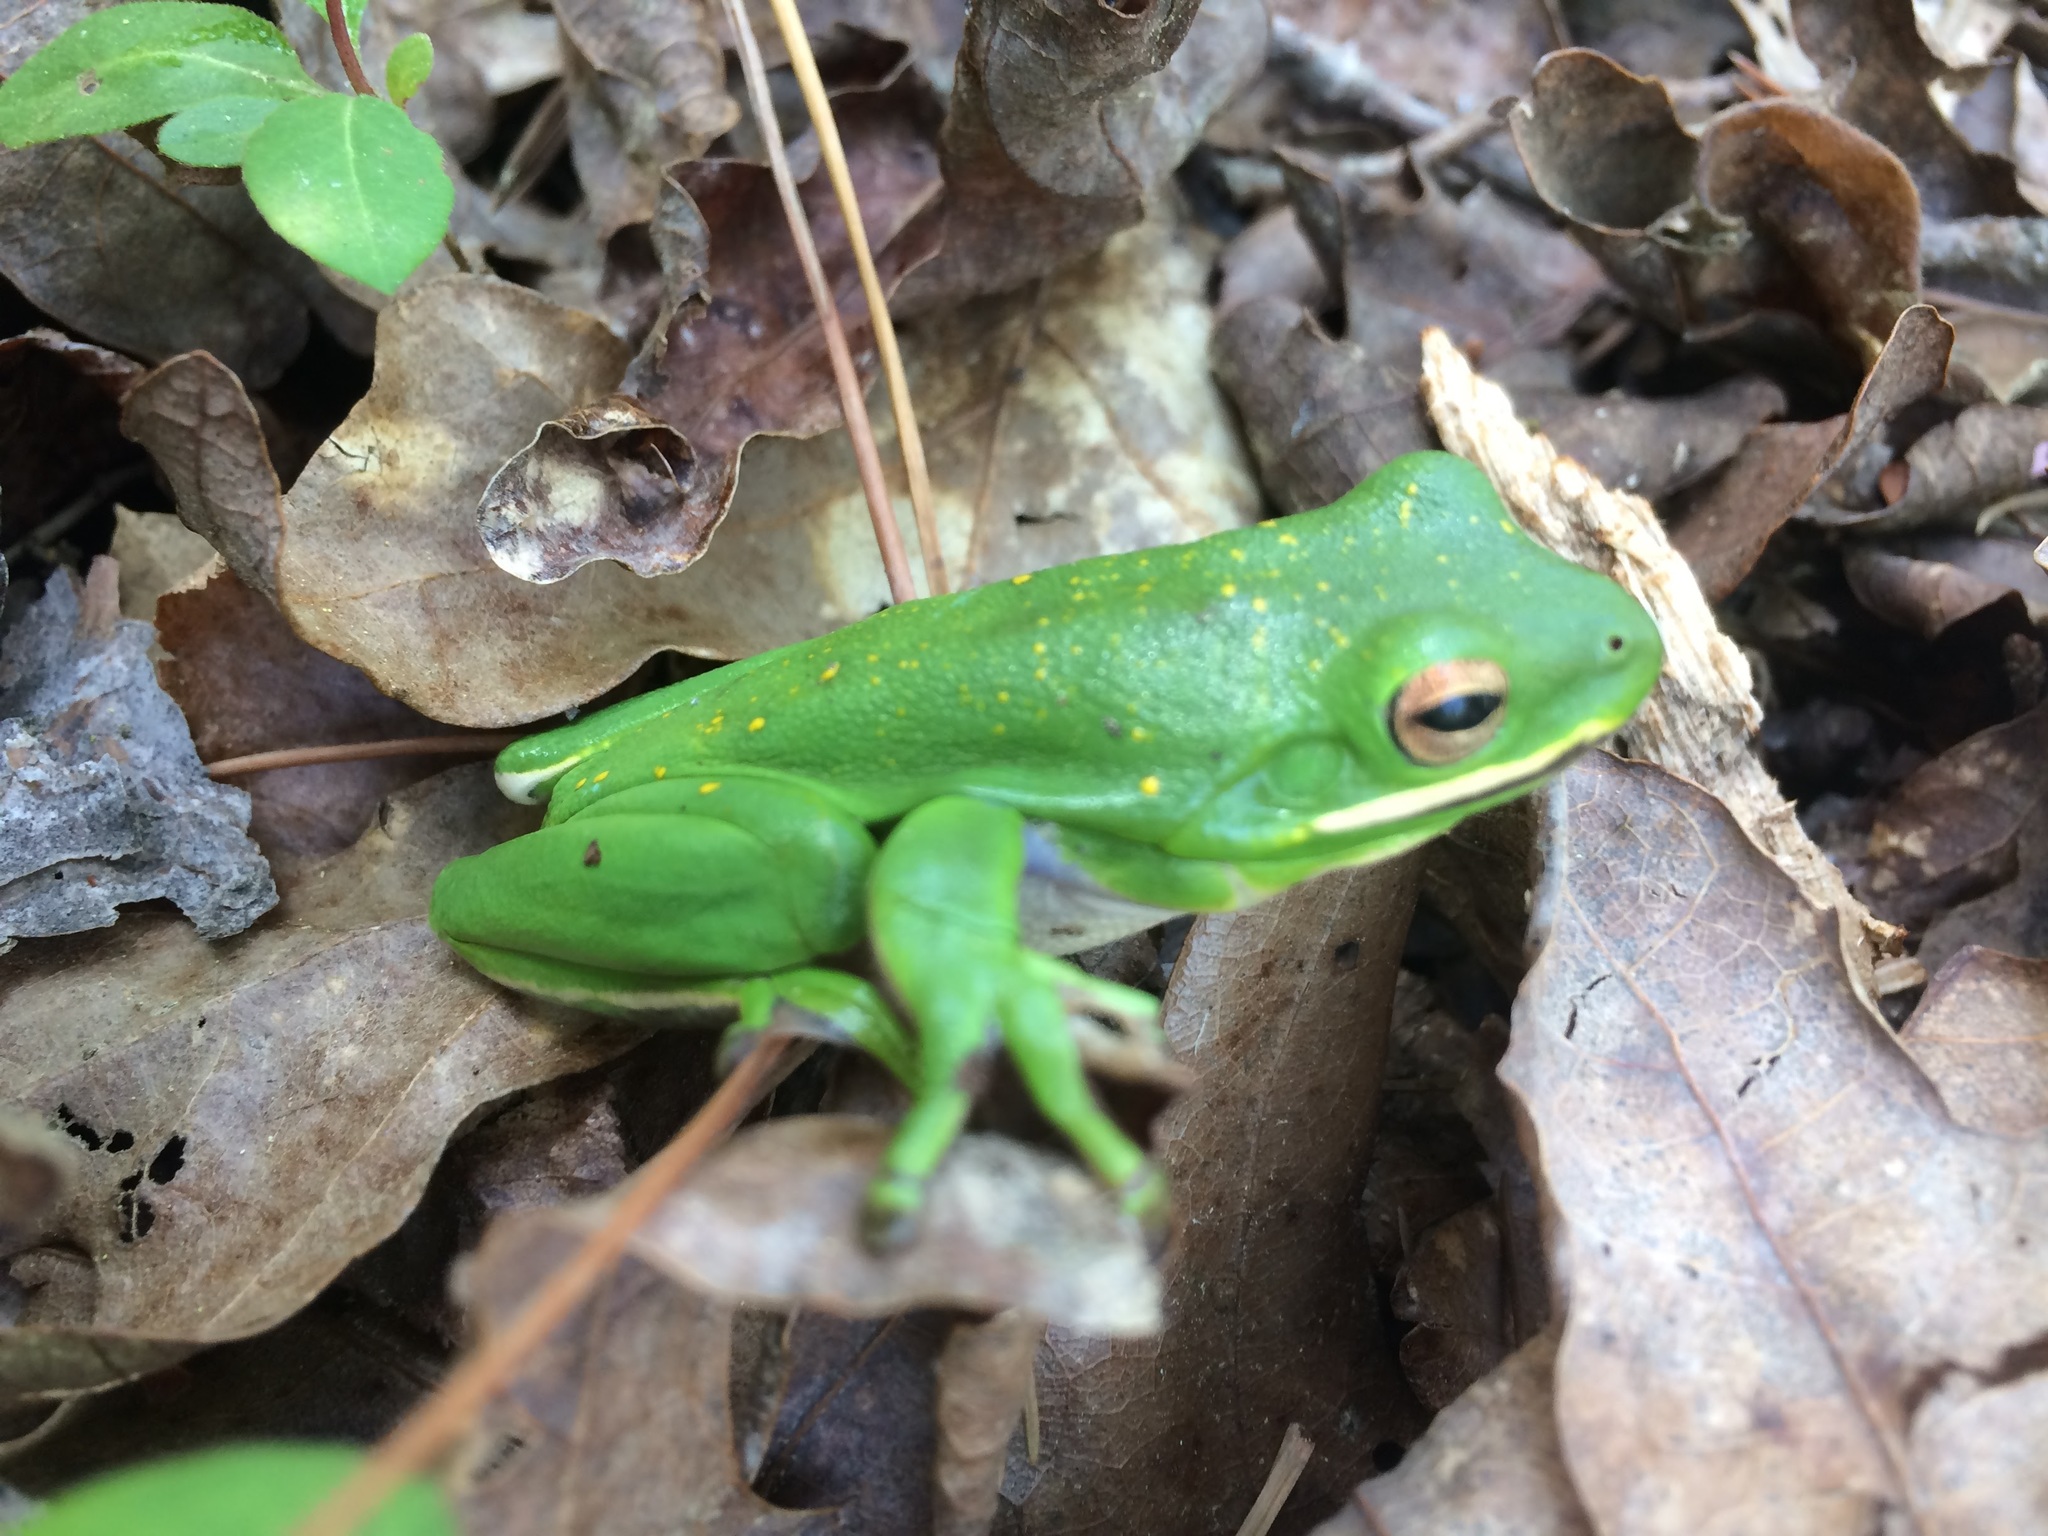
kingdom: Animalia
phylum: Chordata
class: Amphibia
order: Anura
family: Hylidae
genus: Dryophytes
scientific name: Dryophytes cinereus
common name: Green treefrog
